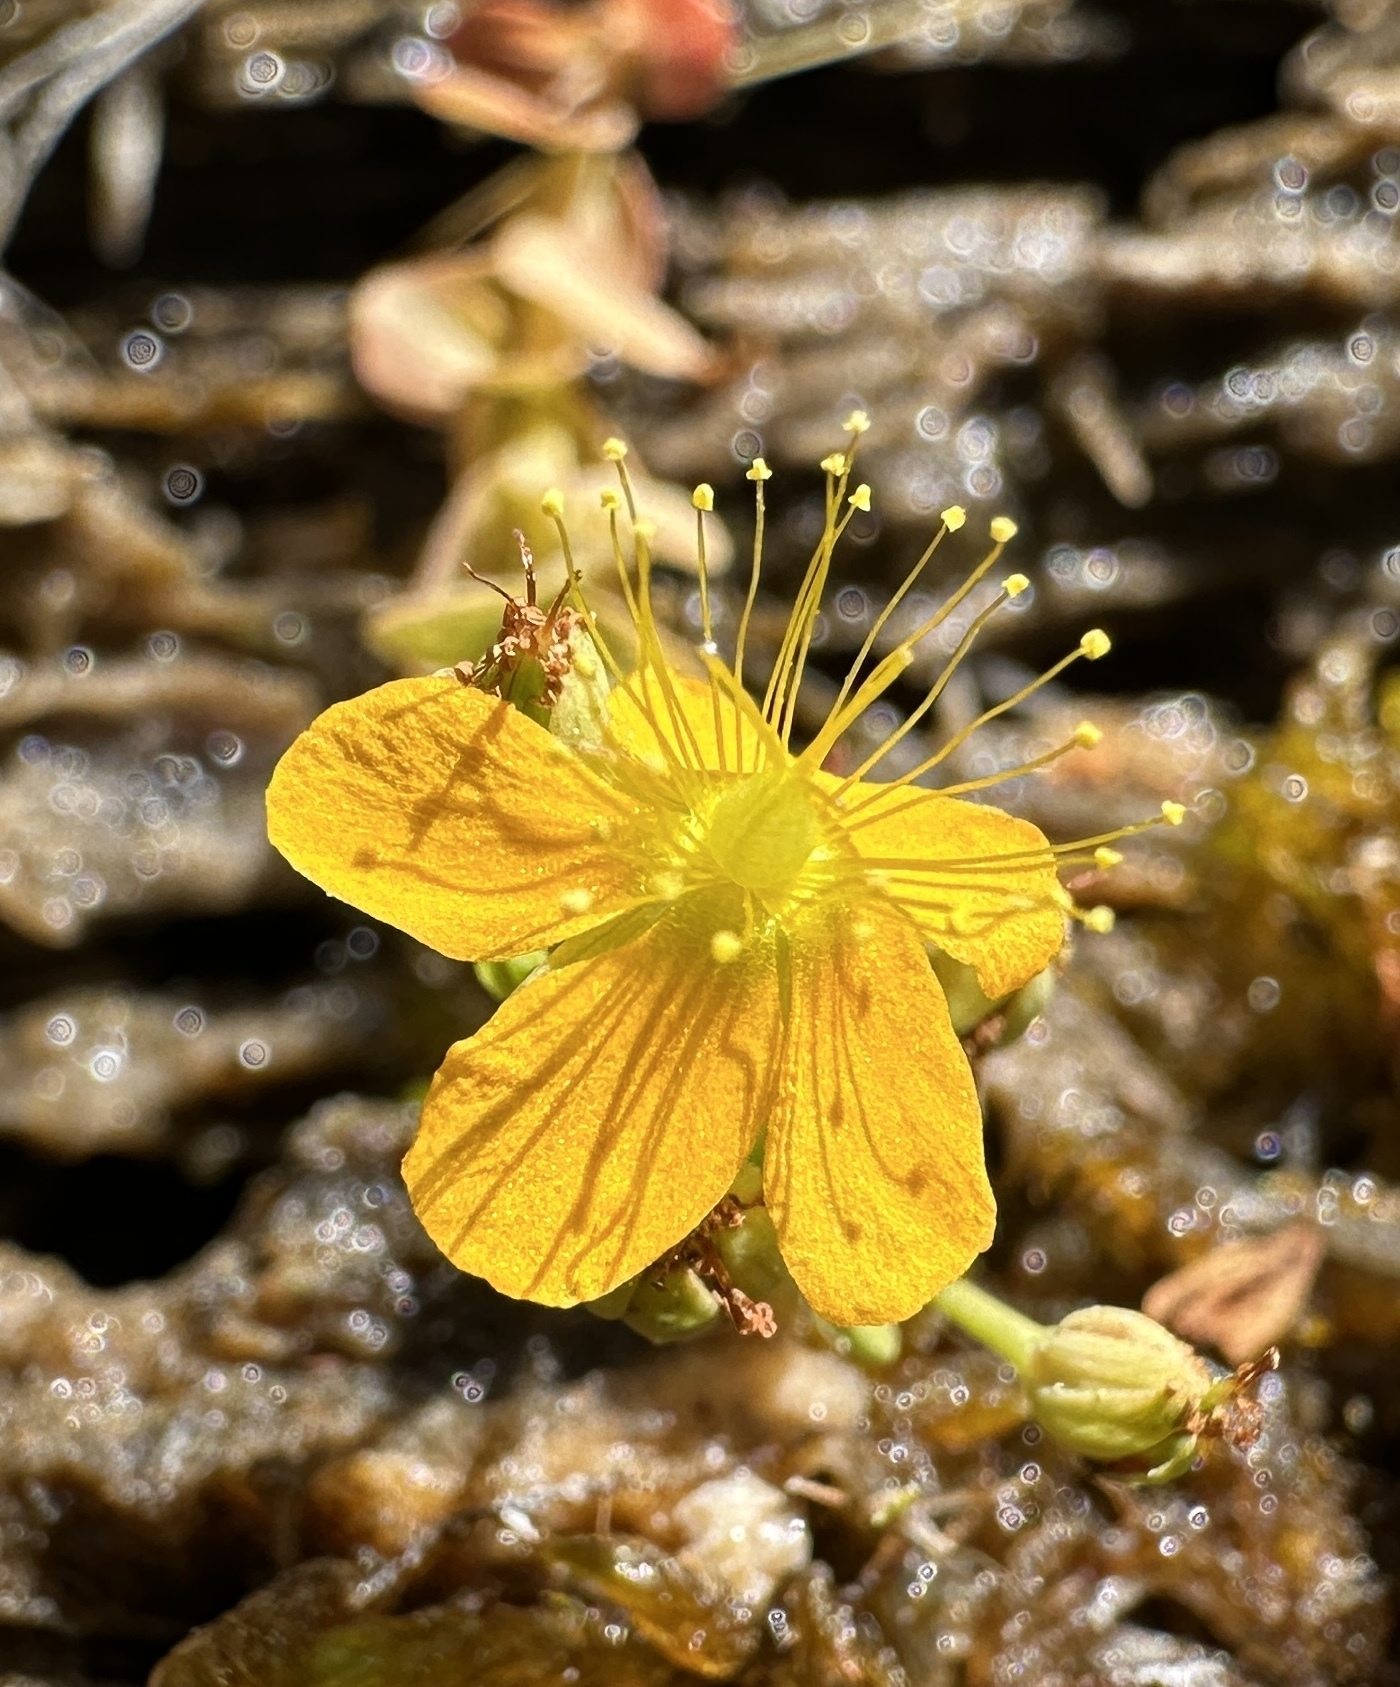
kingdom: Plantae
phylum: Tracheophyta
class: Magnoliopsida
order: Malpighiales
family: Hypericaceae
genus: Hypericum
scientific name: Hypericum anagalloides
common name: Bog st. john's-wort
